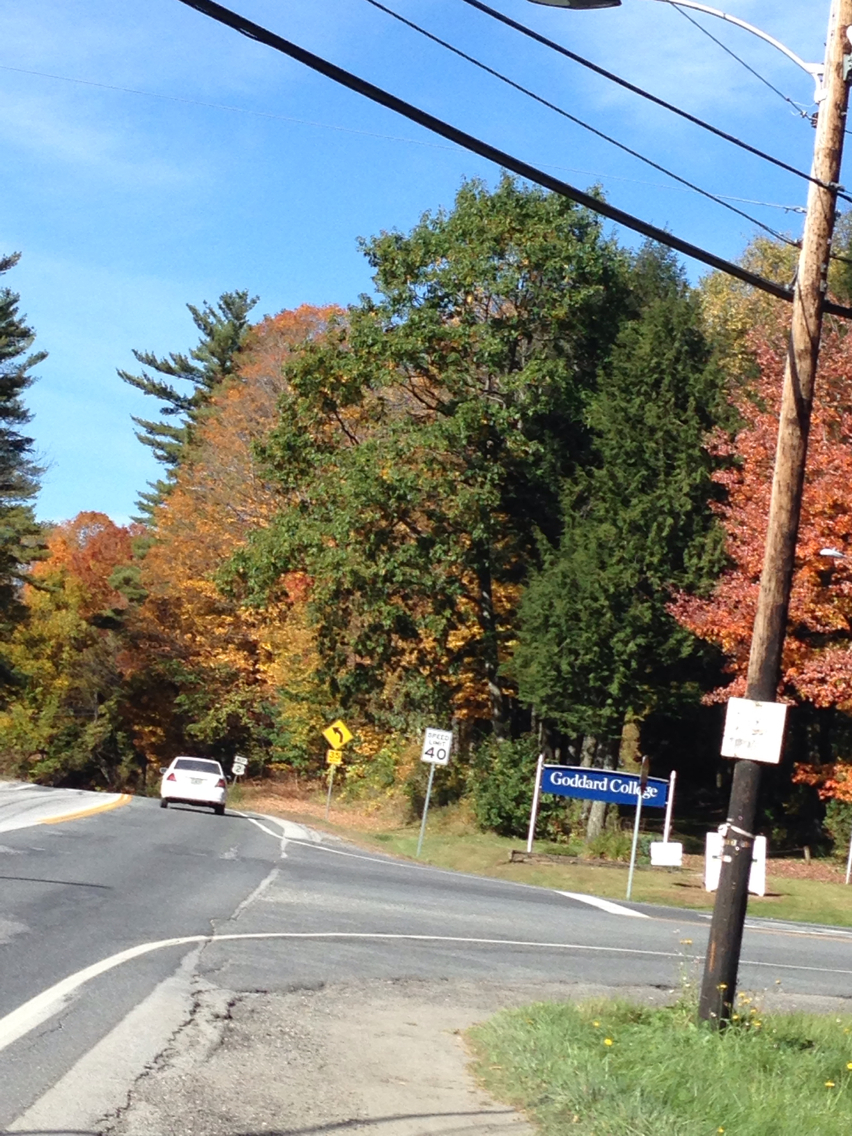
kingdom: Plantae
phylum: Tracheophyta
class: Magnoliopsida
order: Fagales
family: Fagaceae
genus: Quercus
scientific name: Quercus rubra
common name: Red oak
